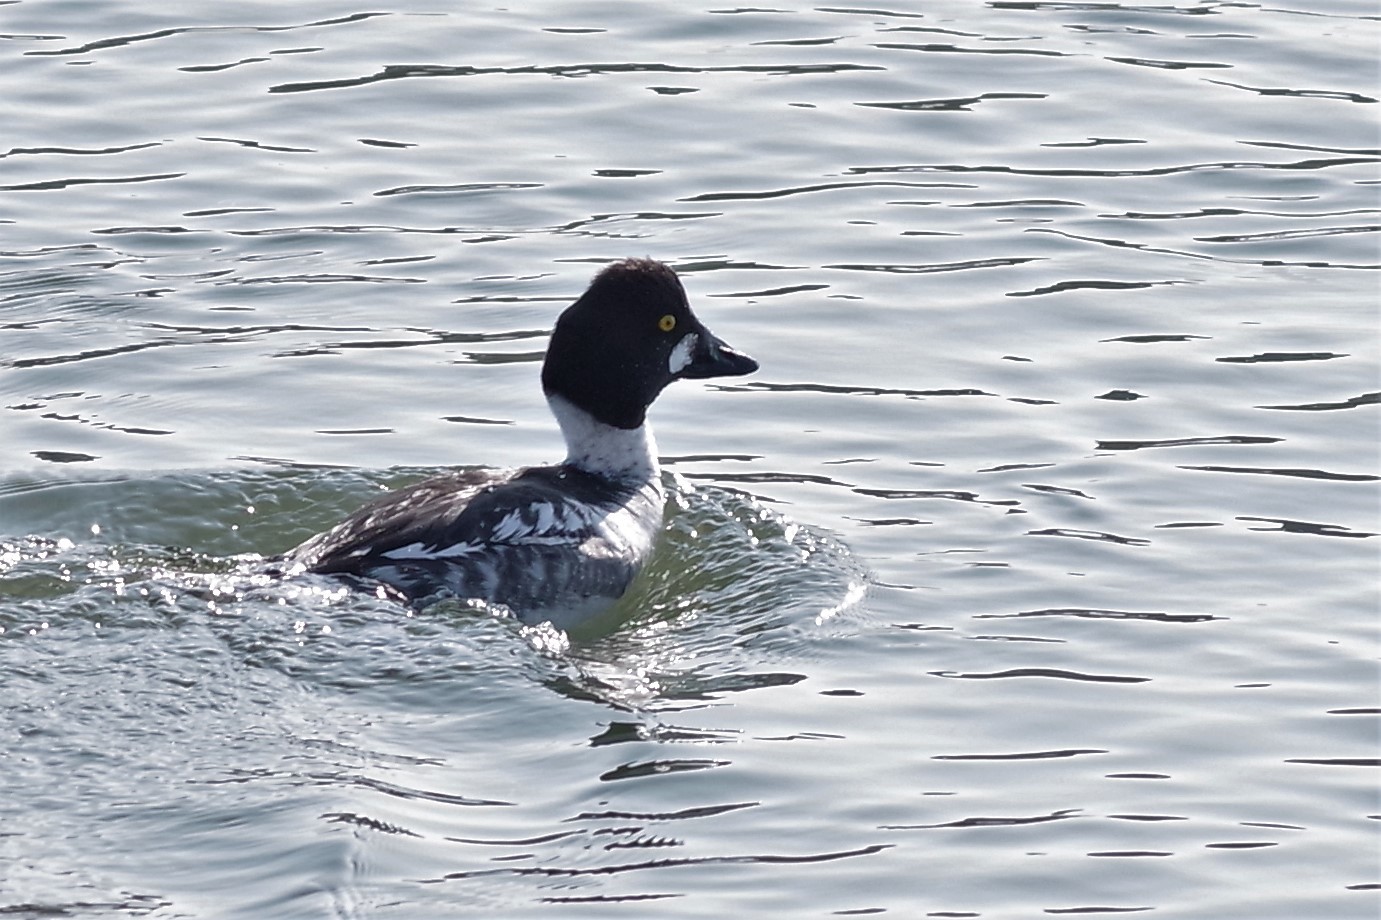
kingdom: Animalia
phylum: Chordata
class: Aves
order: Anseriformes
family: Anatidae
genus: Bucephala
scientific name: Bucephala clangula
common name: Common goldeneye
